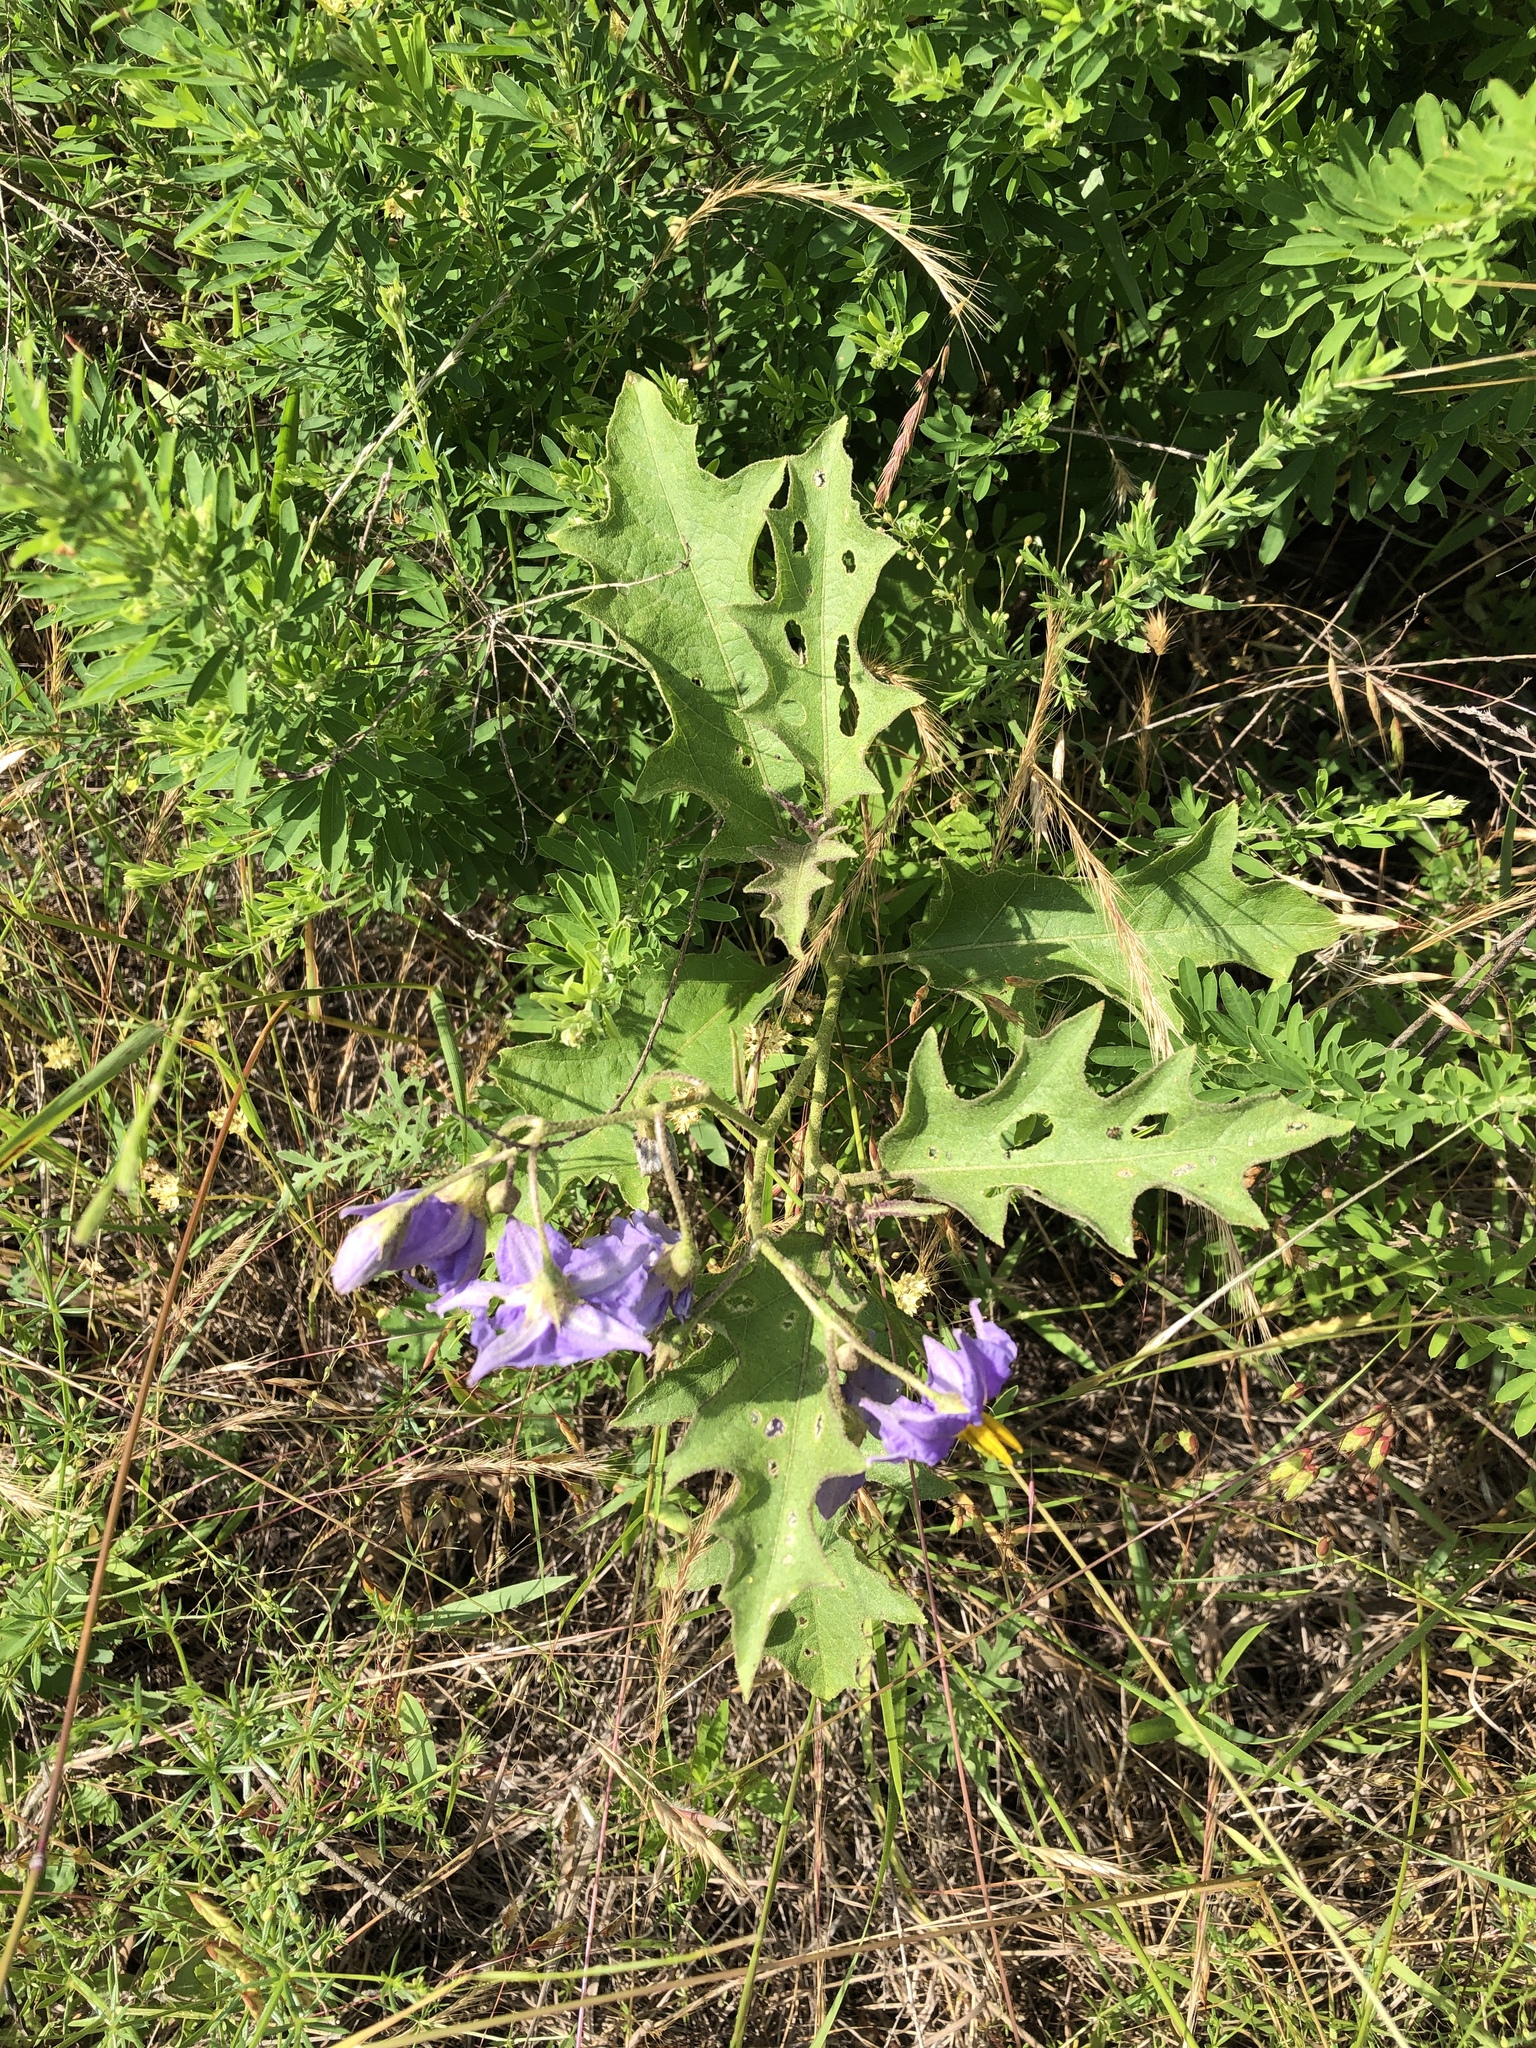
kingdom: Plantae
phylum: Tracheophyta
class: Magnoliopsida
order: Solanales
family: Solanaceae
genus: Solanum
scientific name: Solanum dimidiatum
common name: Carolina horse-nettle
